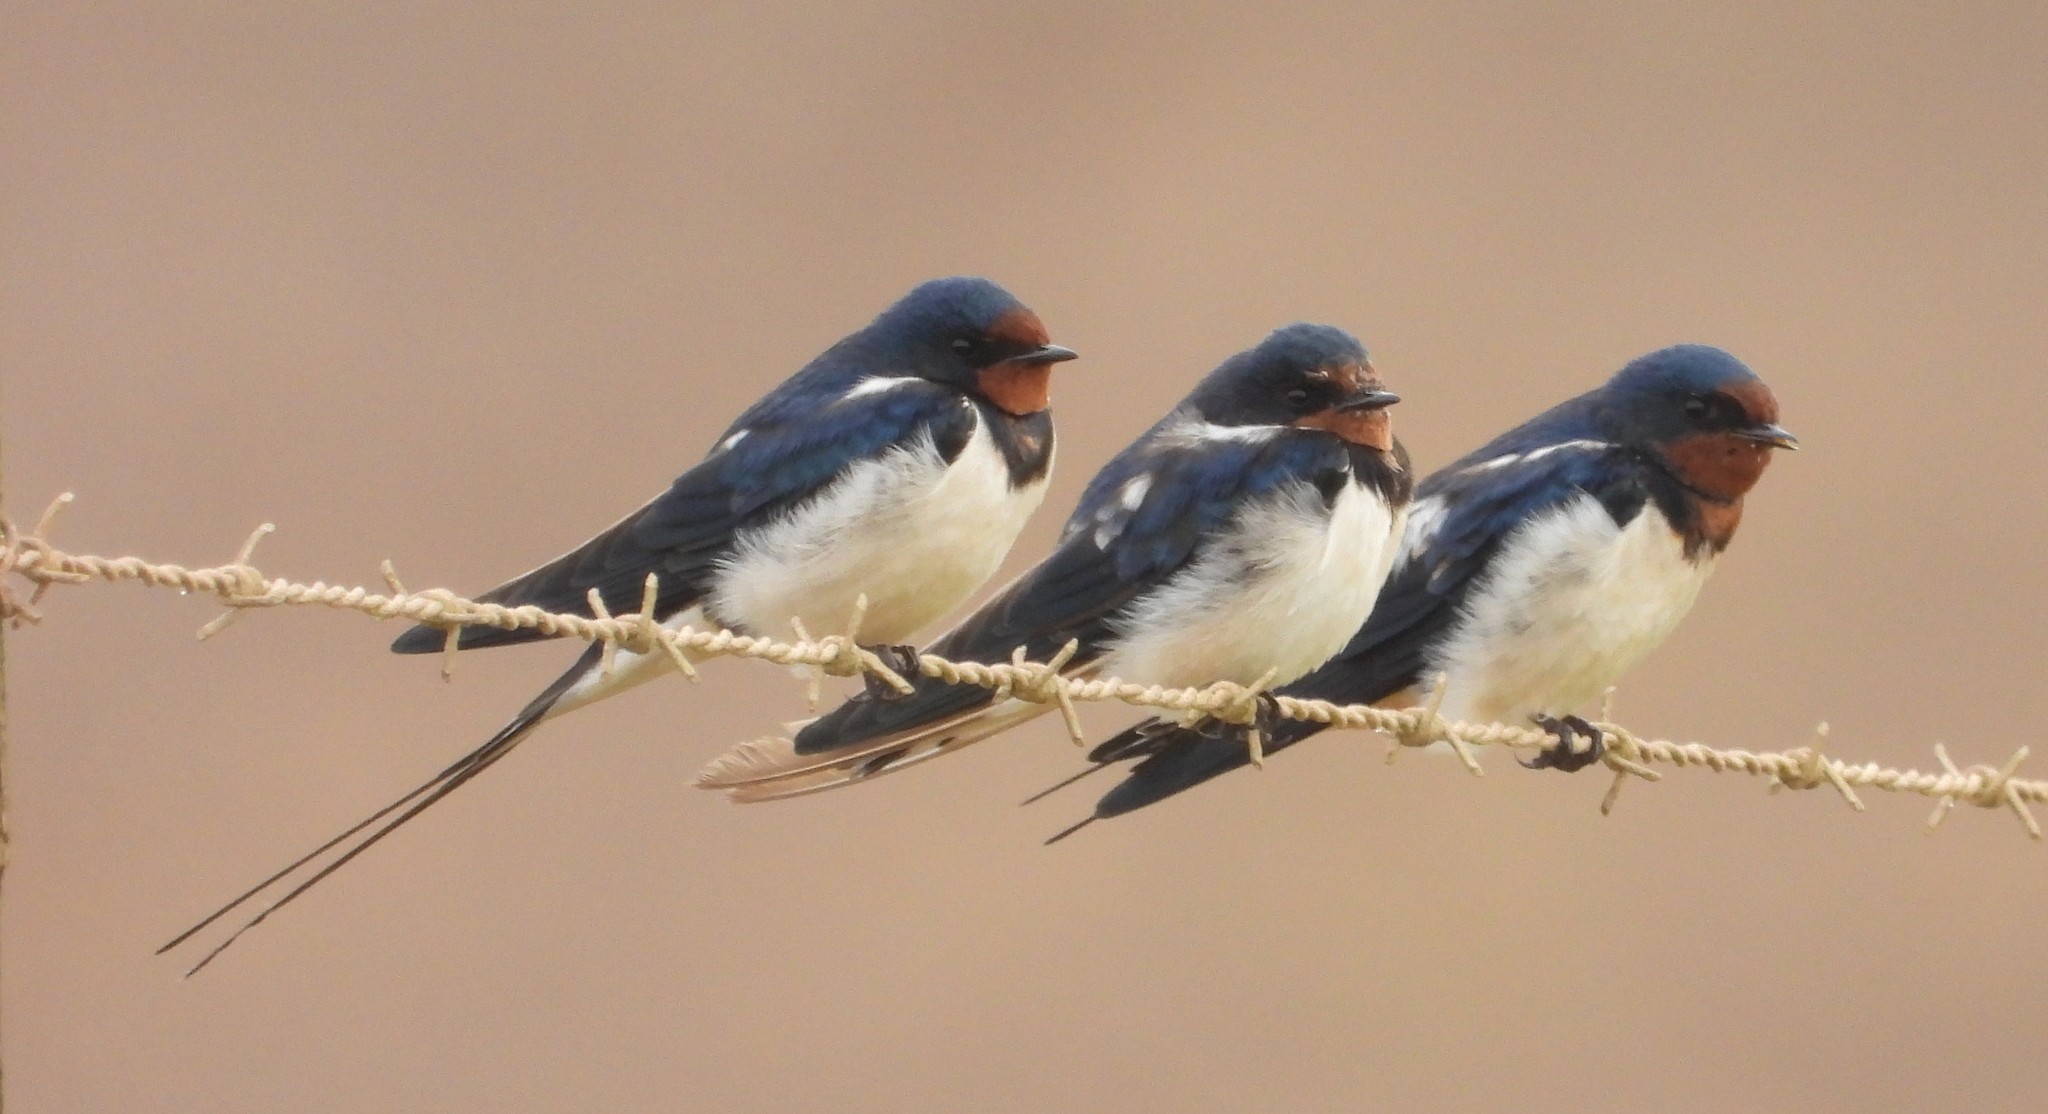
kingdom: Animalia
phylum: Chordata
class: Aves
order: Passeriformes
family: Hirundinidae
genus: Hirundo
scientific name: Hirundo rustica
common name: Barn swallow
